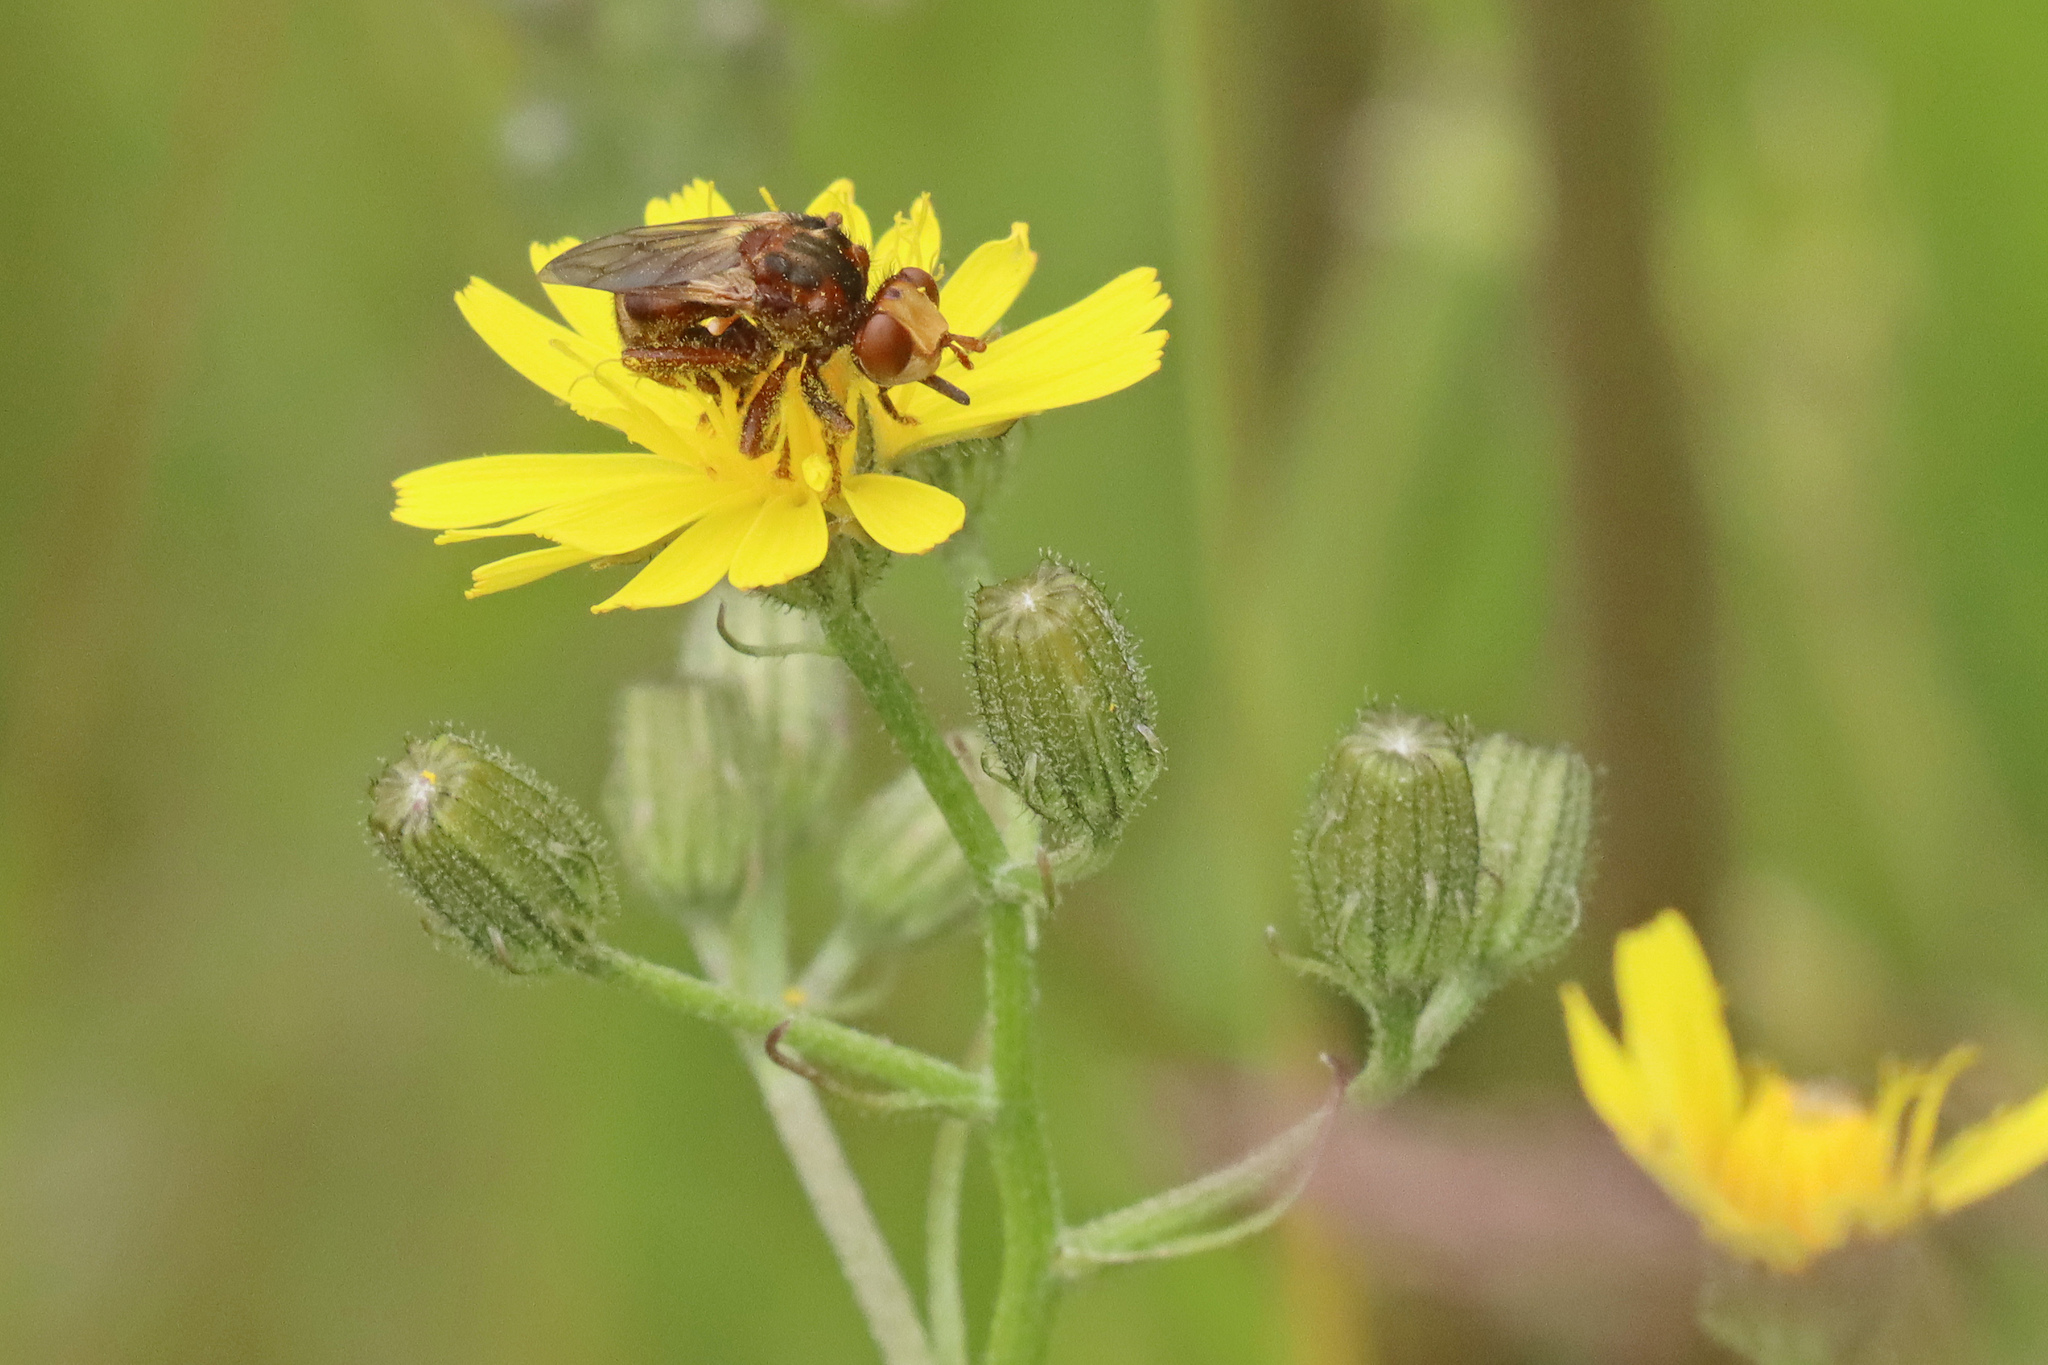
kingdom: Animalia
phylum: Arthropoda
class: Insecta
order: Diptera
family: Conopidae
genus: Sicus
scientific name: Sicus ferrugineus
